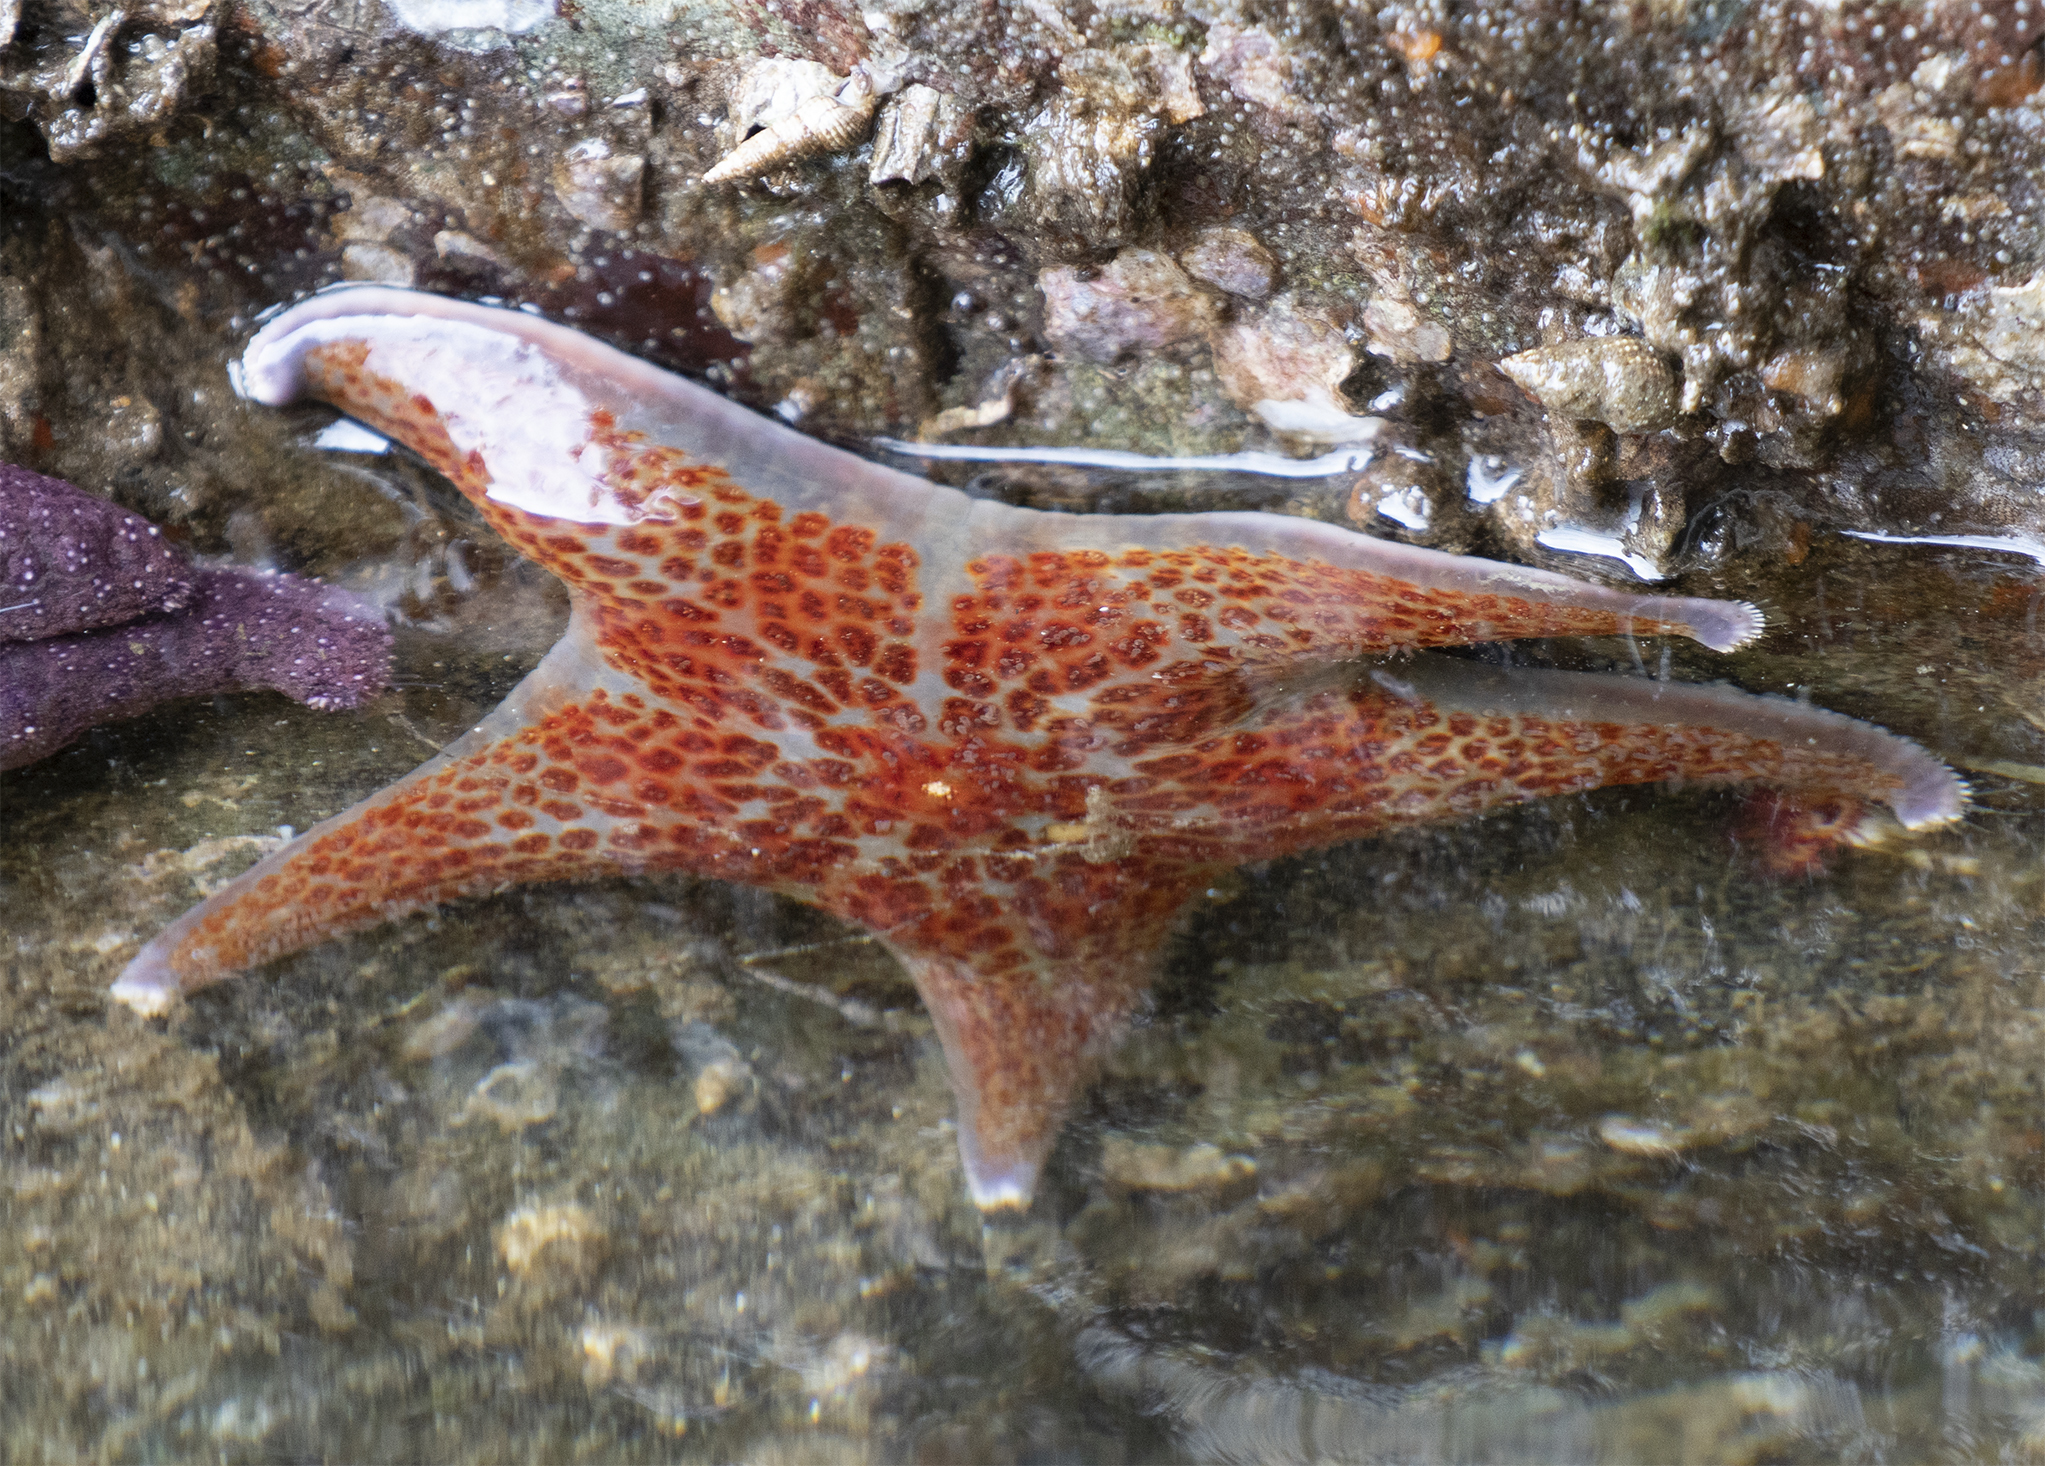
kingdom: Animalia
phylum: Echinodermata
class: Asteroidea
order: Valvatida
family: Asteropseidae
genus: Dermasterias
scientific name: Dermasterias imbricata
